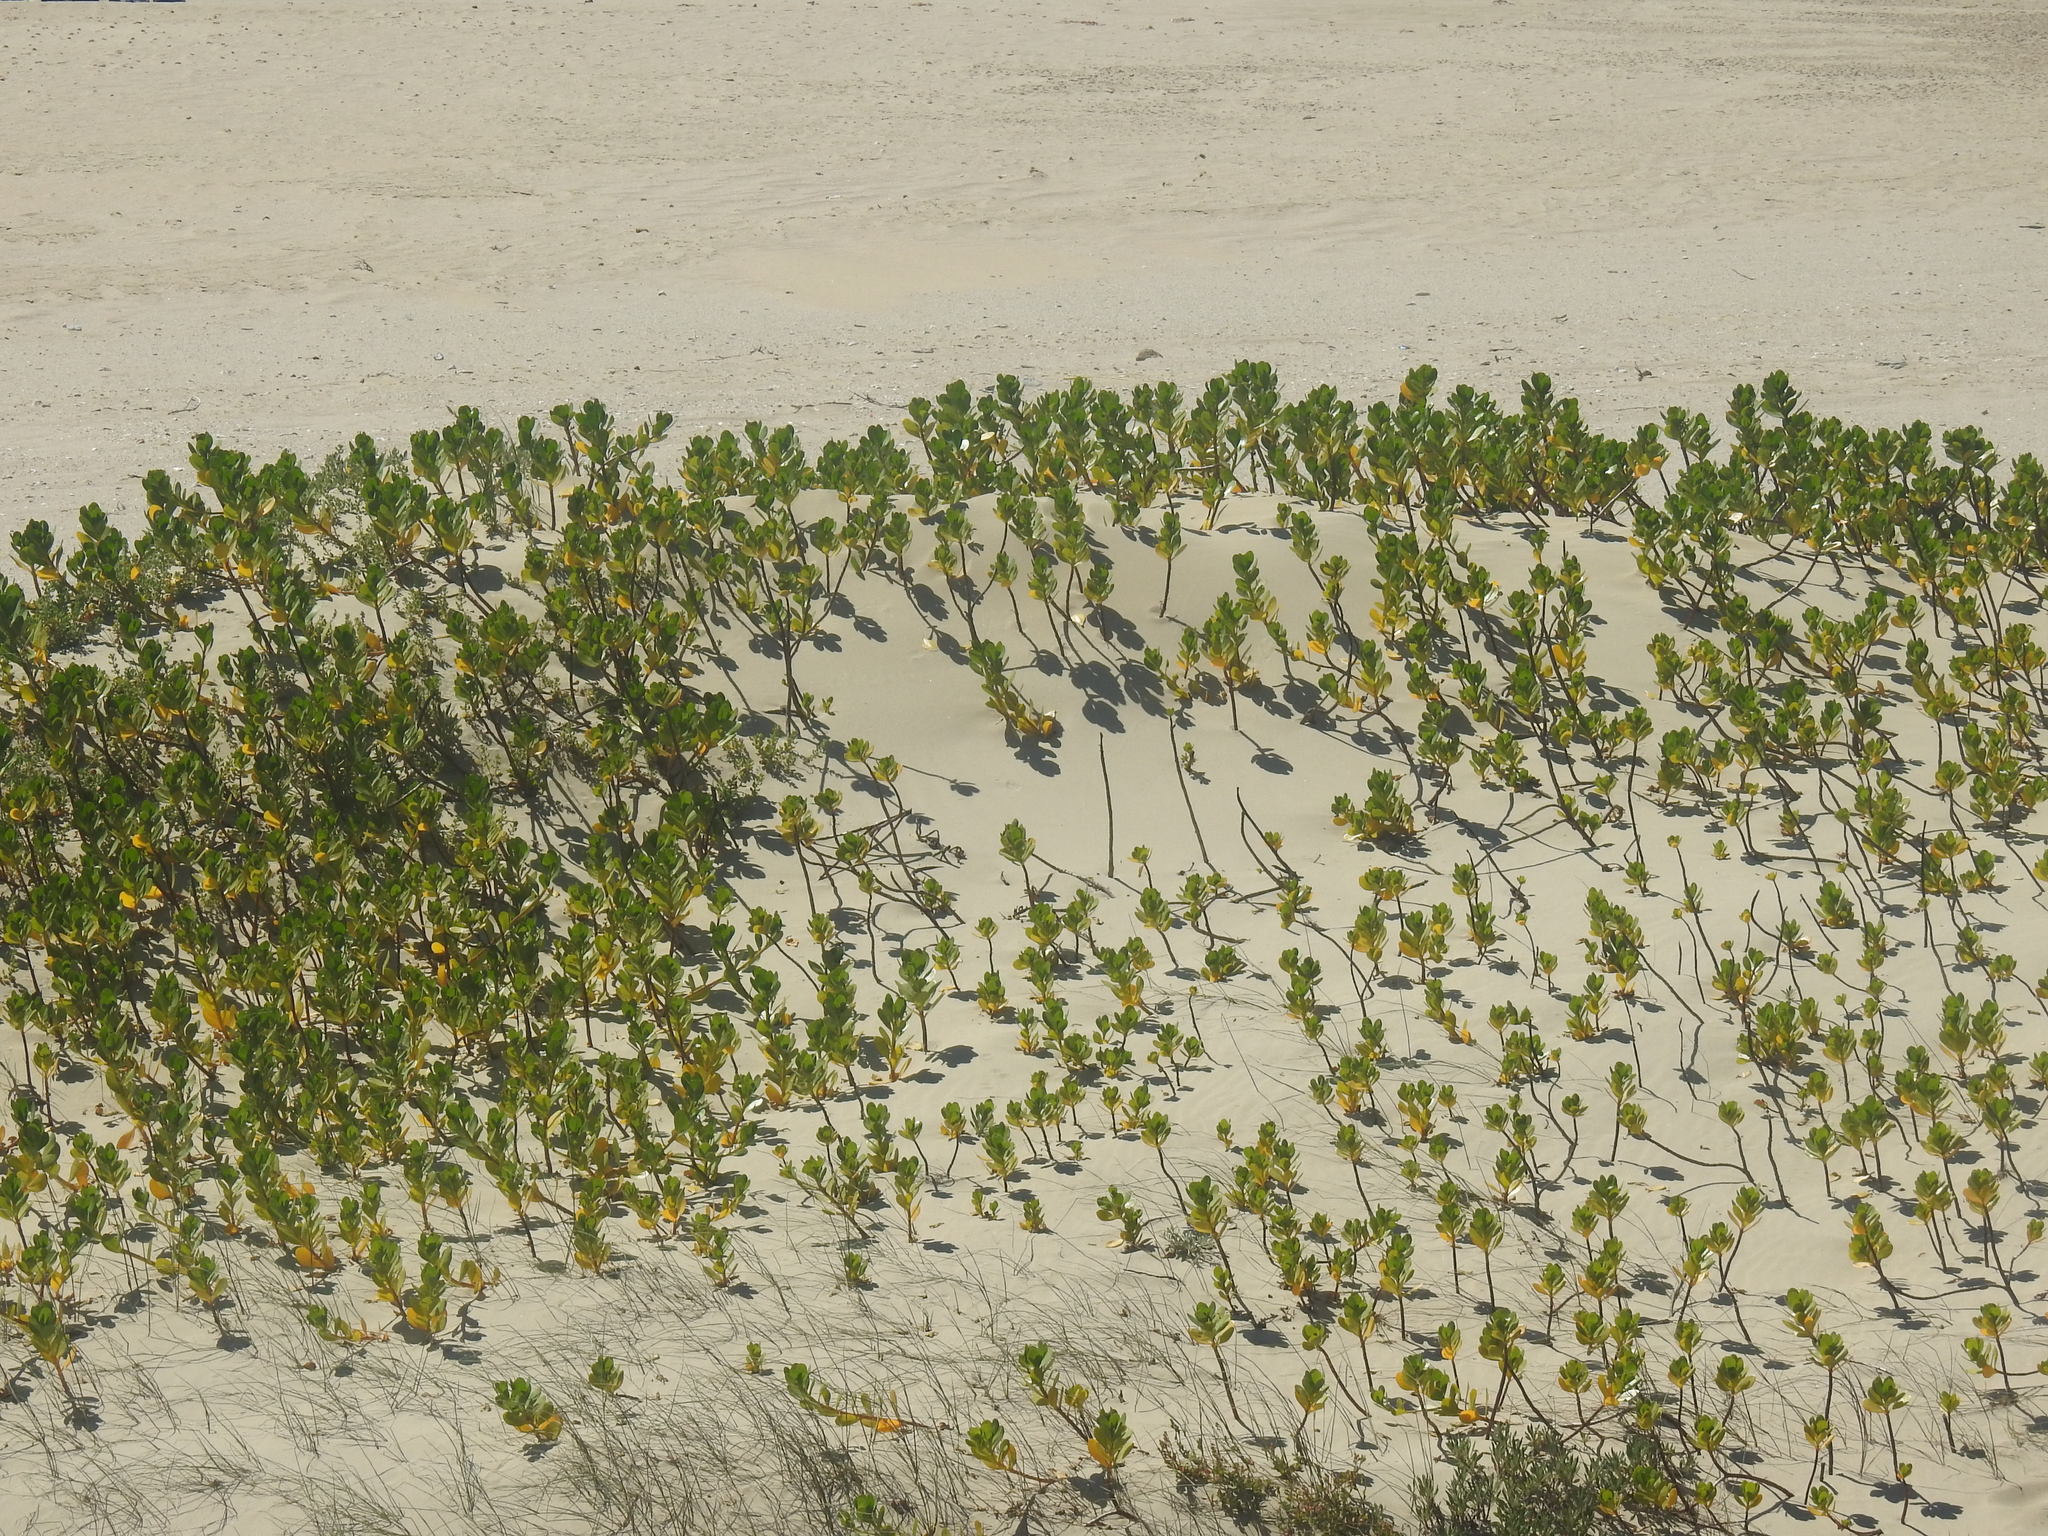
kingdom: Plantae
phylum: Tracheophyta
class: Magnoliopsida
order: Asterales
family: Goodeniaceae
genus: Scaevola
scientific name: Scaevola plumieri
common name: Gull feed
